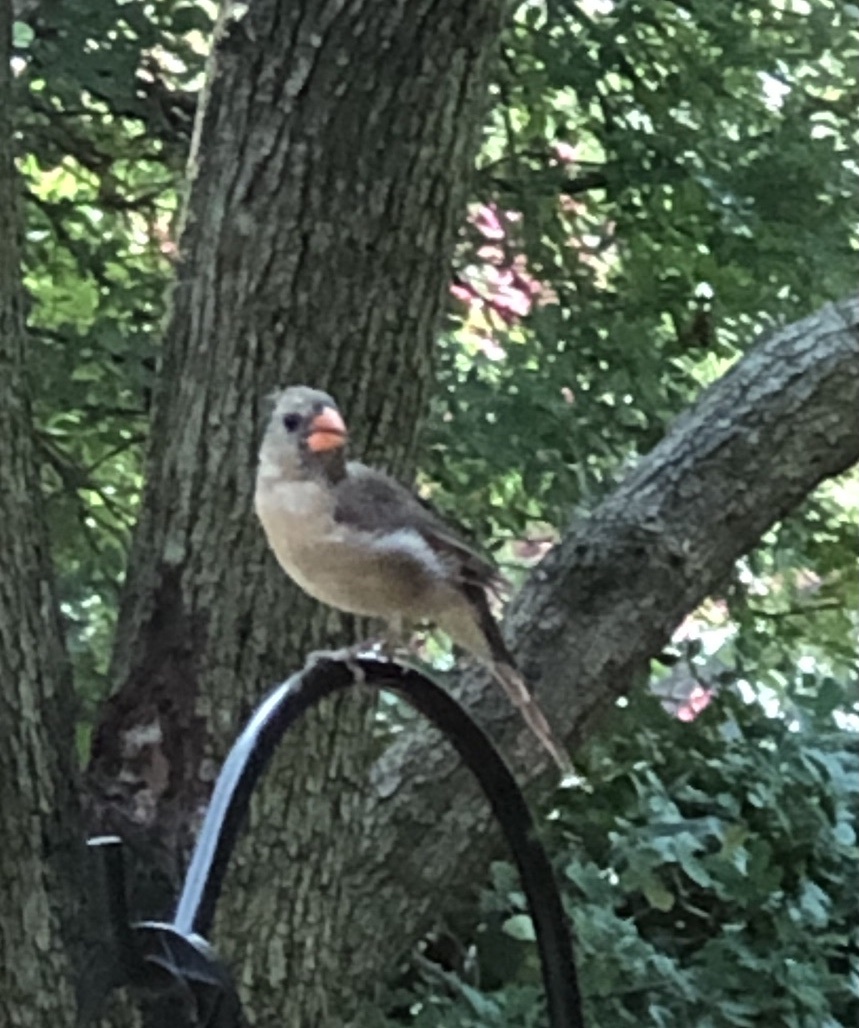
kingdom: Animalia
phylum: Chordata
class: Aves
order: Passeriformes
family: Cardinalidae
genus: Cardinalis
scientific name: Cardinalis cardinalis
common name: Northern cardinal
